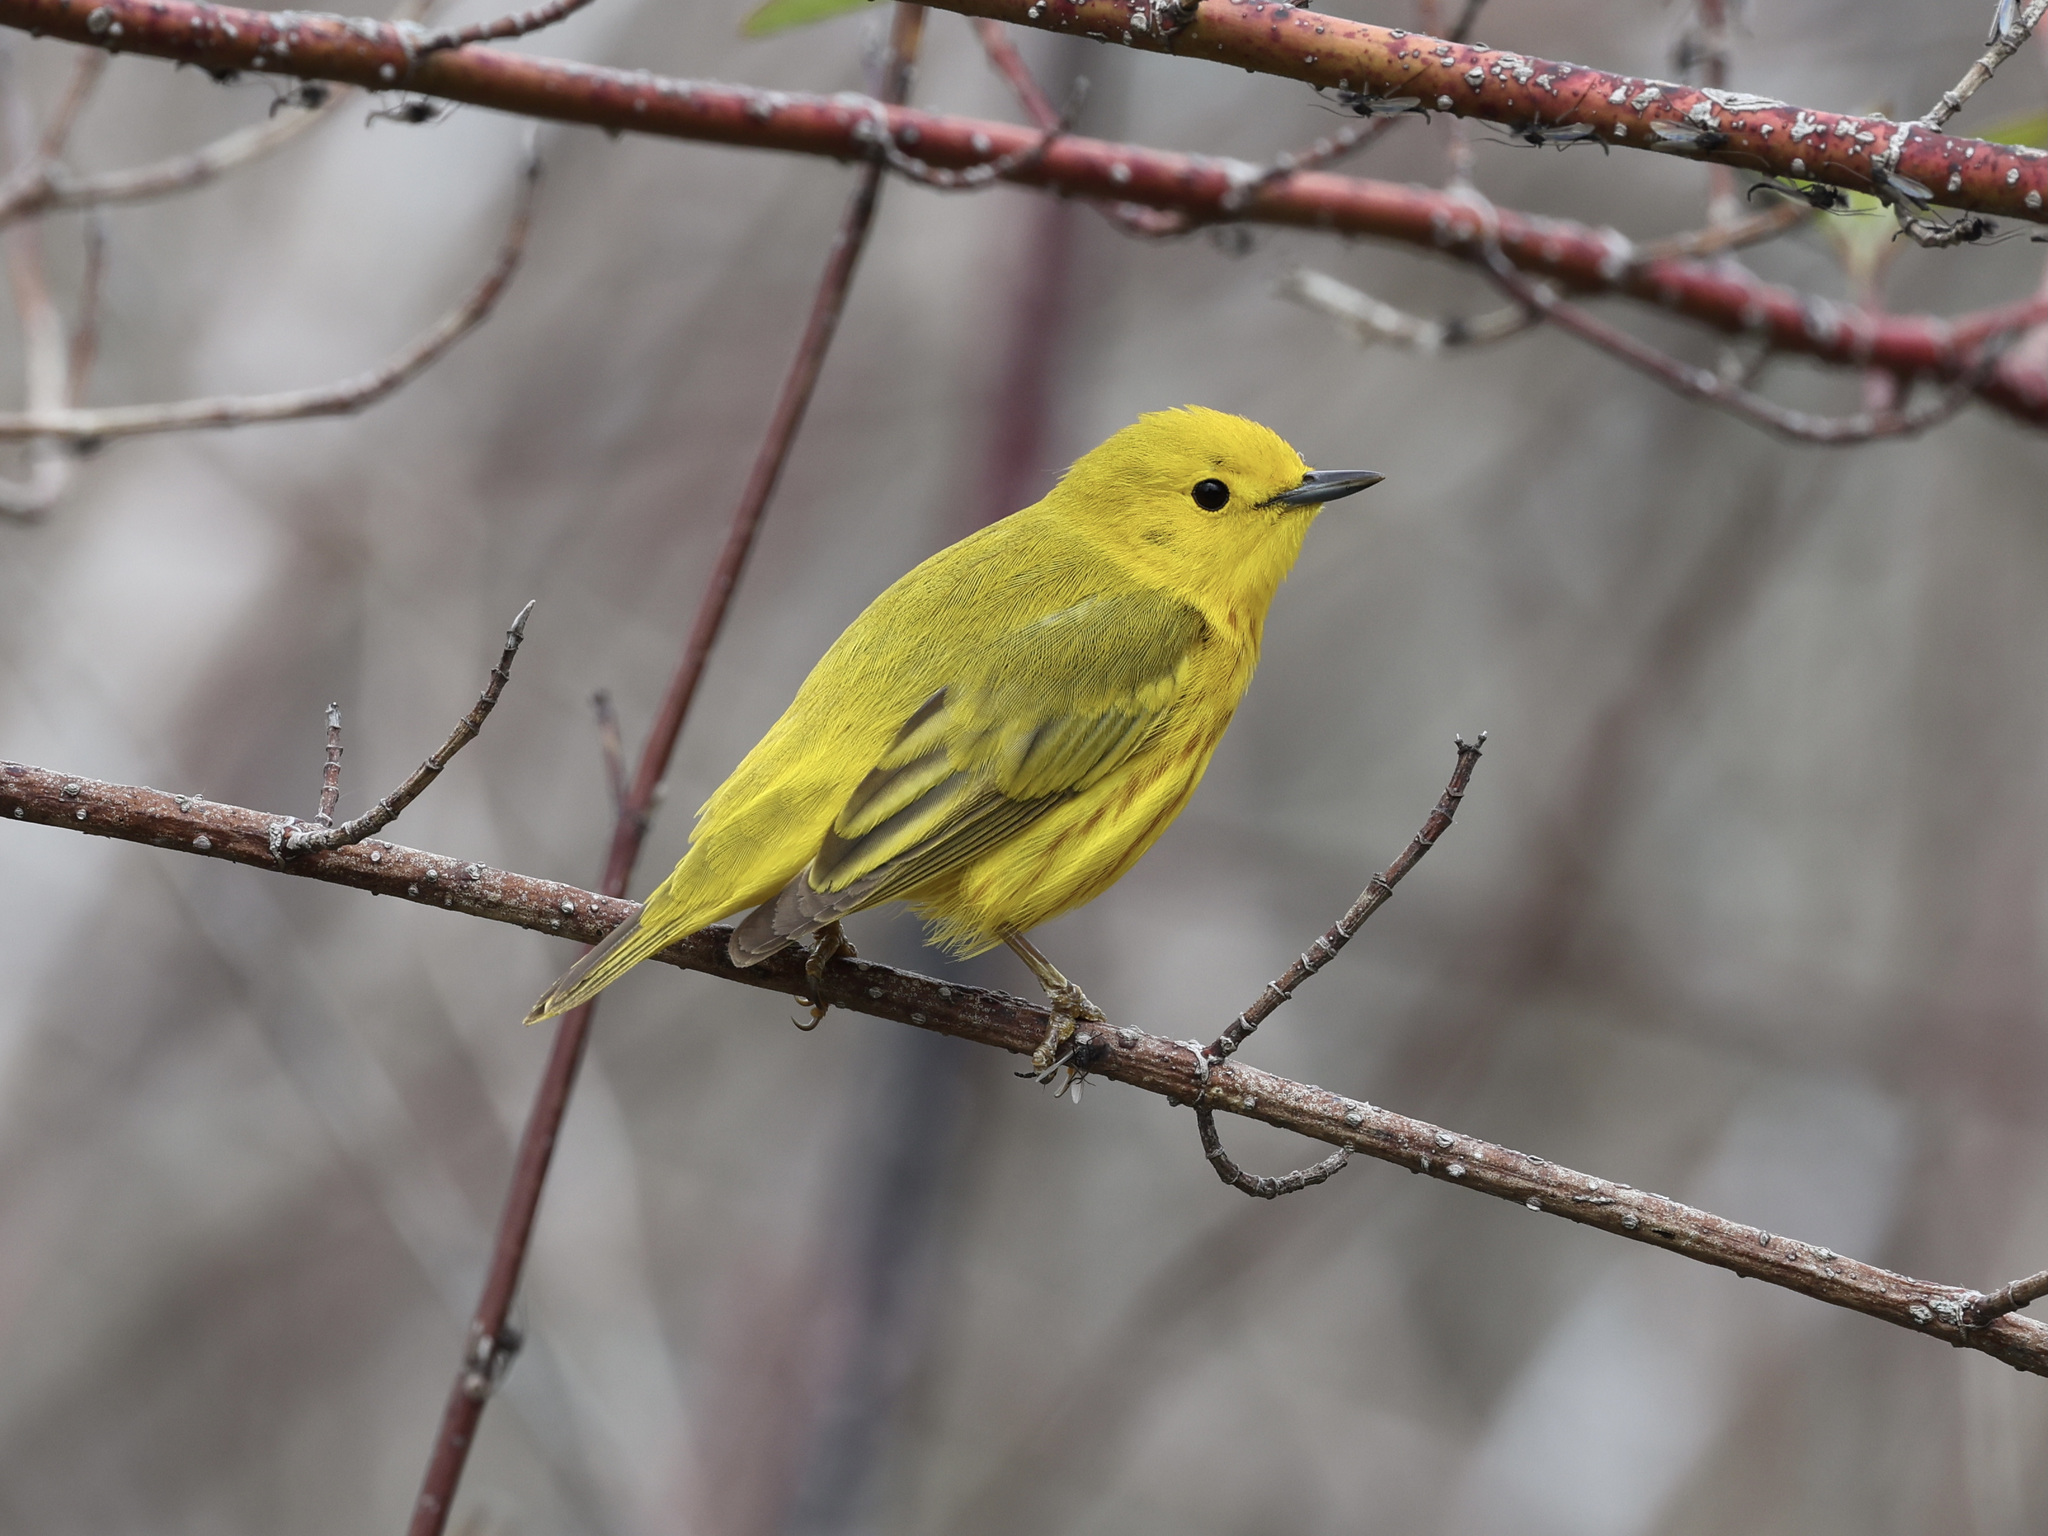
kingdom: Animalia
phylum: Chordata
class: Aves
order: Passeriformes
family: Parulidae
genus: Setophaga
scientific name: Setophaga petechia
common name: Yellow warbler
